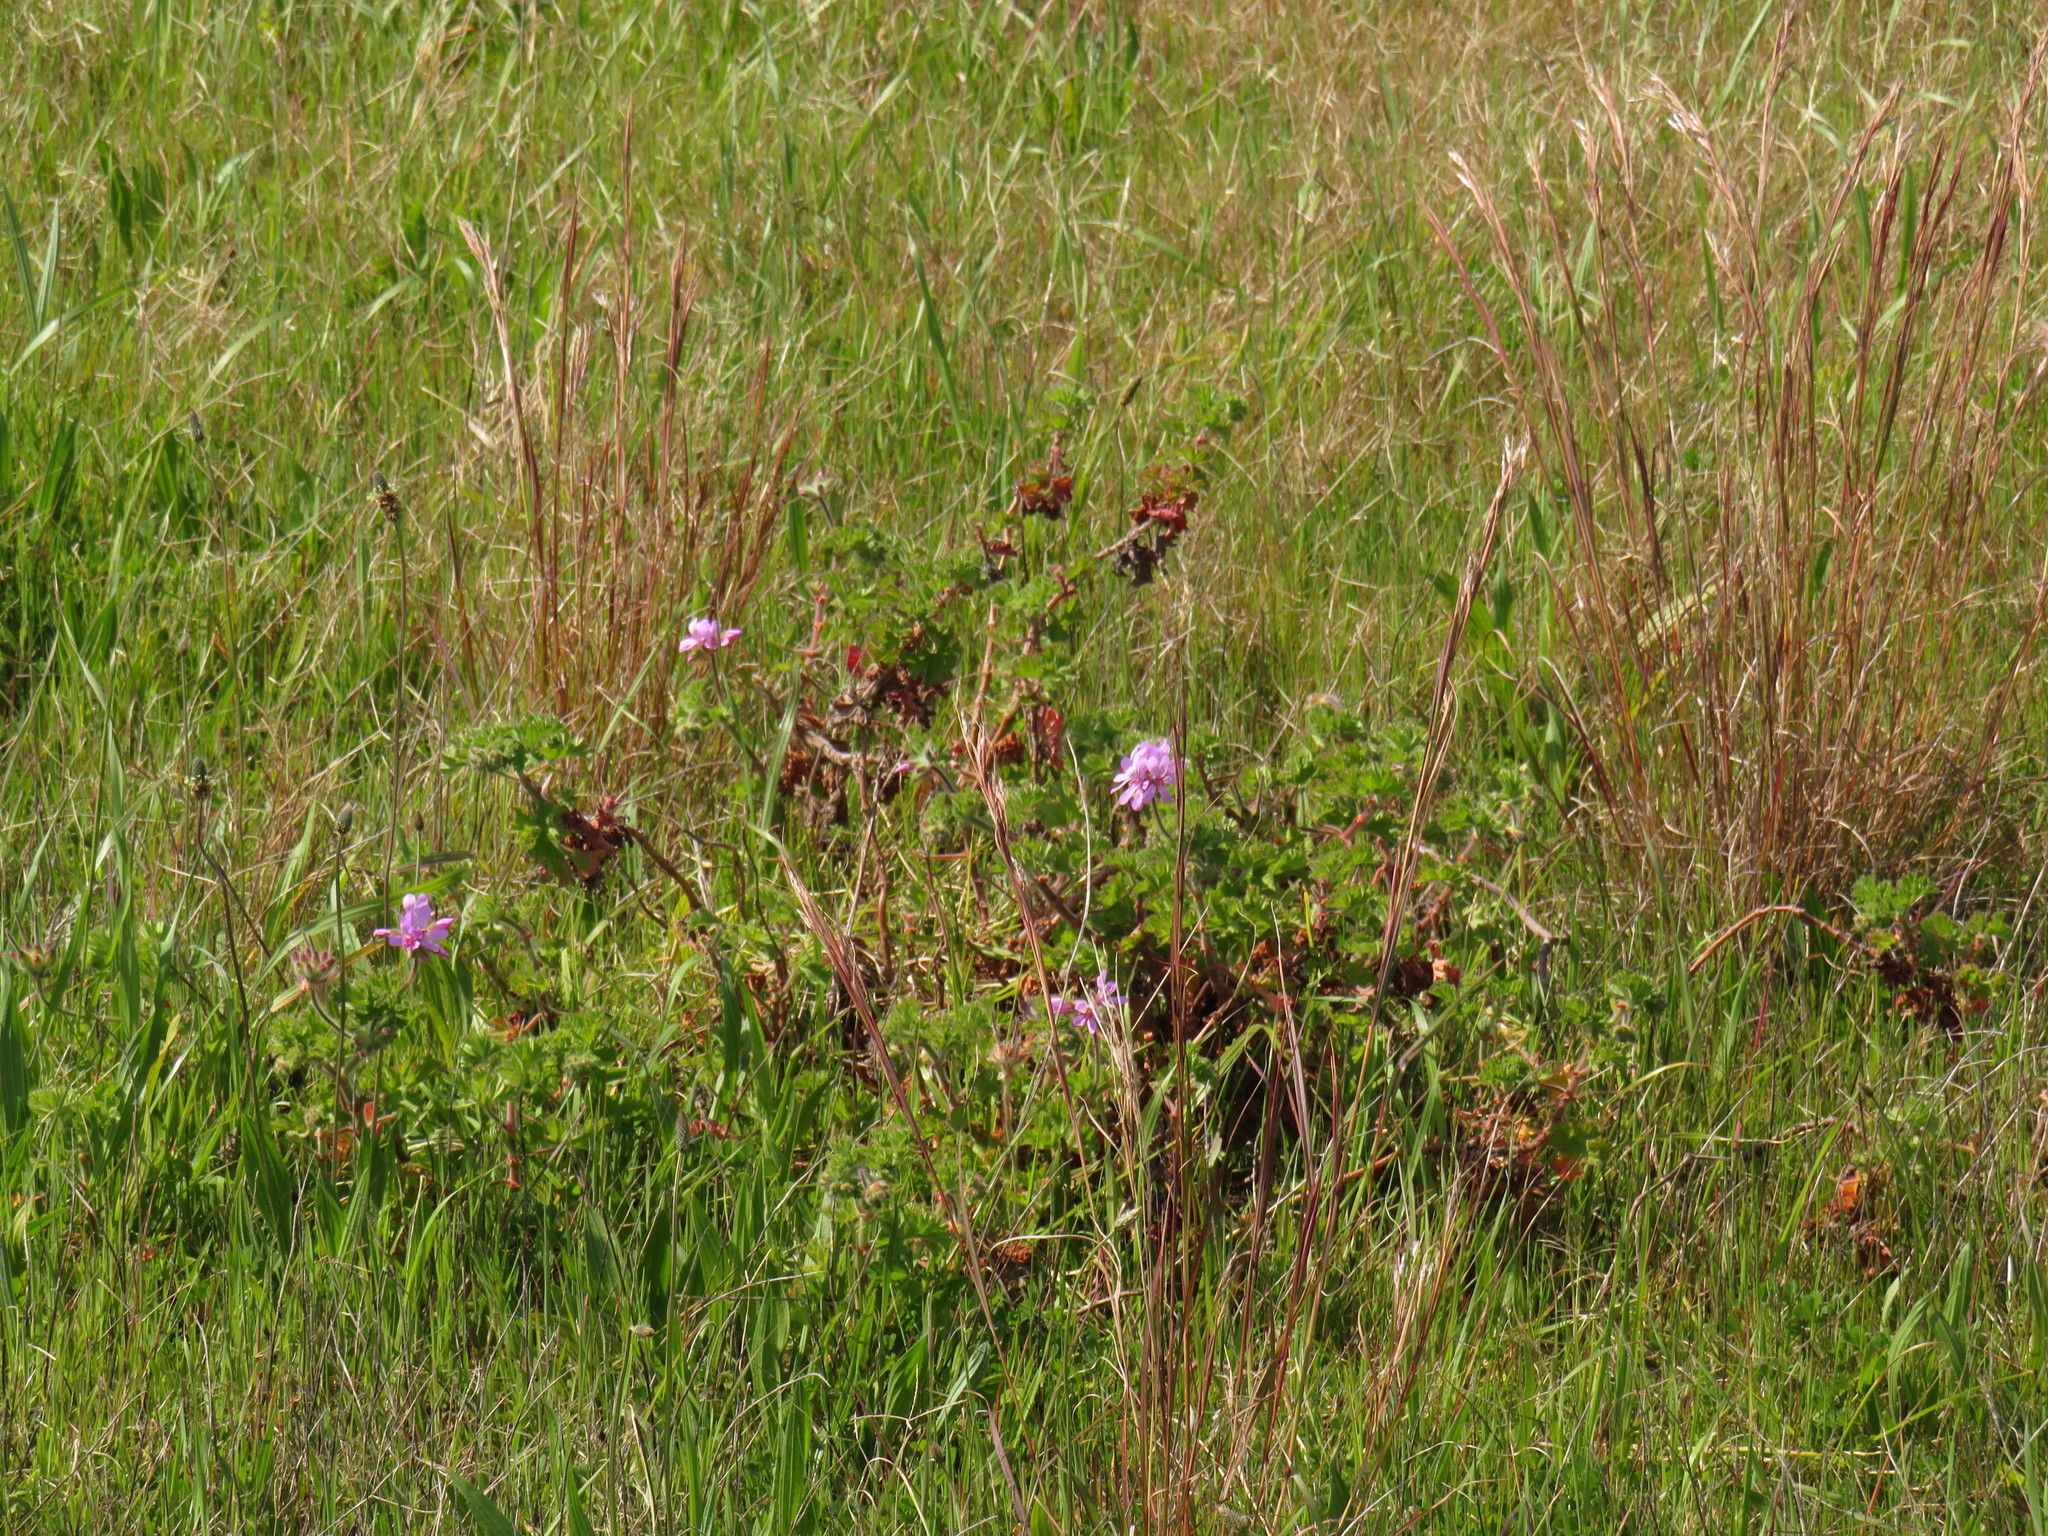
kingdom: Plantae
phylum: Tracheophyta
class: Magnoliopsida
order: Geraniales
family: Geraniaceae
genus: Pelargonium
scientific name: Pelargonium capitatum
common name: Rose scented geranium
